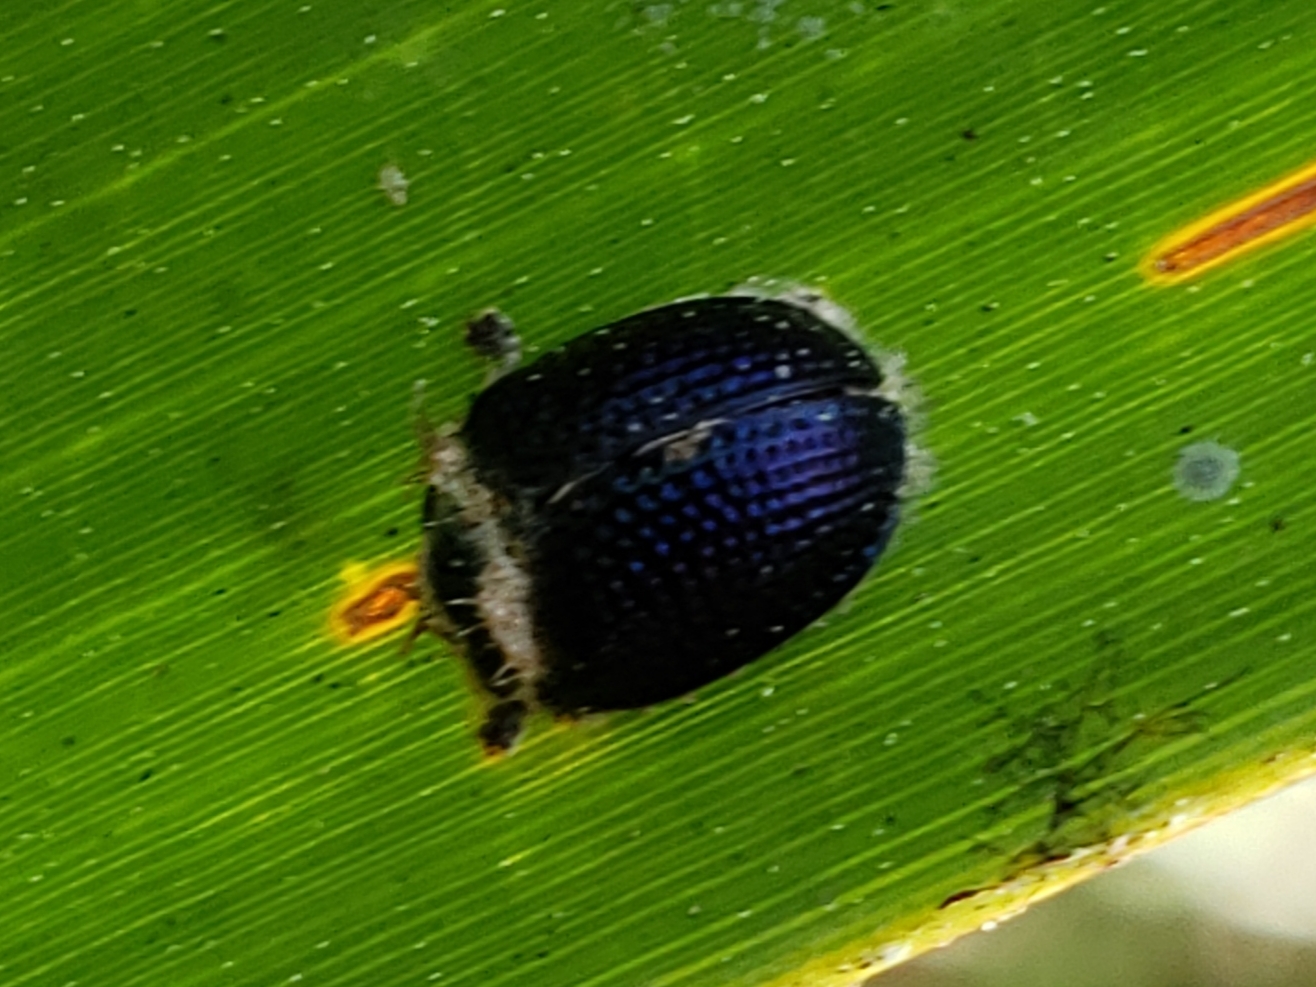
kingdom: Animalia
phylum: Arthropoda
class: Insecta
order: Coleoptera
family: Chrysomelidae
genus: Hemisphaerota
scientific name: Hemisphaerota cyanea
